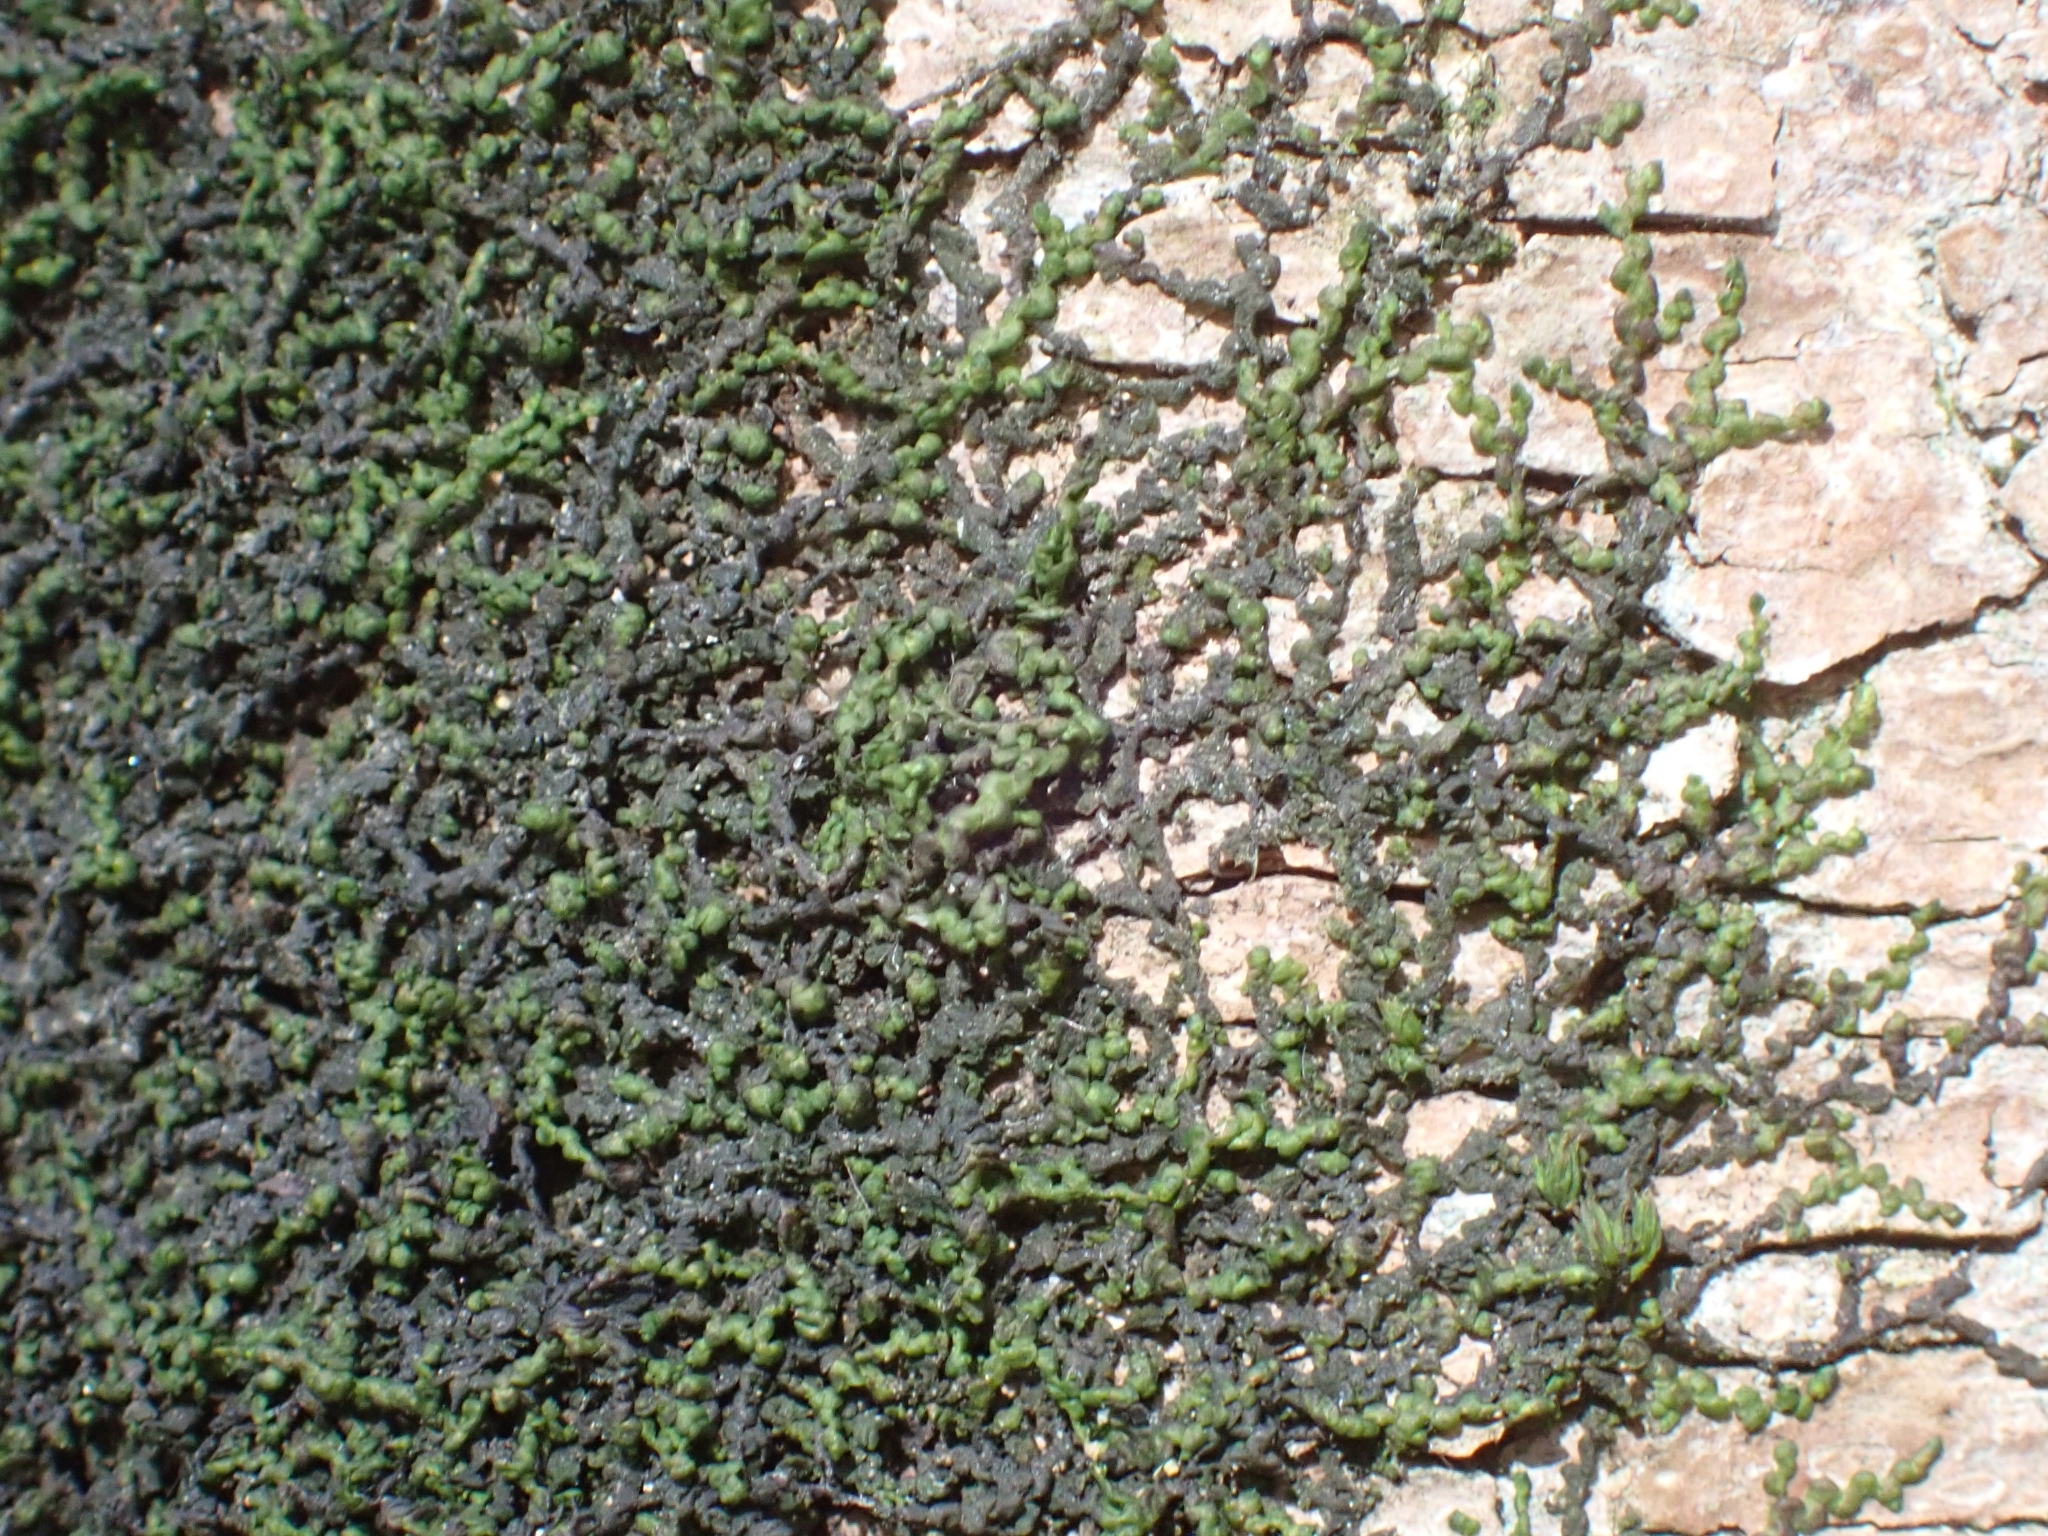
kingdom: Plantae
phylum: Marchantiophyta
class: Jungermanniopsida
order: Porellales
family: Frullaniaceae
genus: Frullania
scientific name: Frullania dilatata
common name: Dilated scalewort
